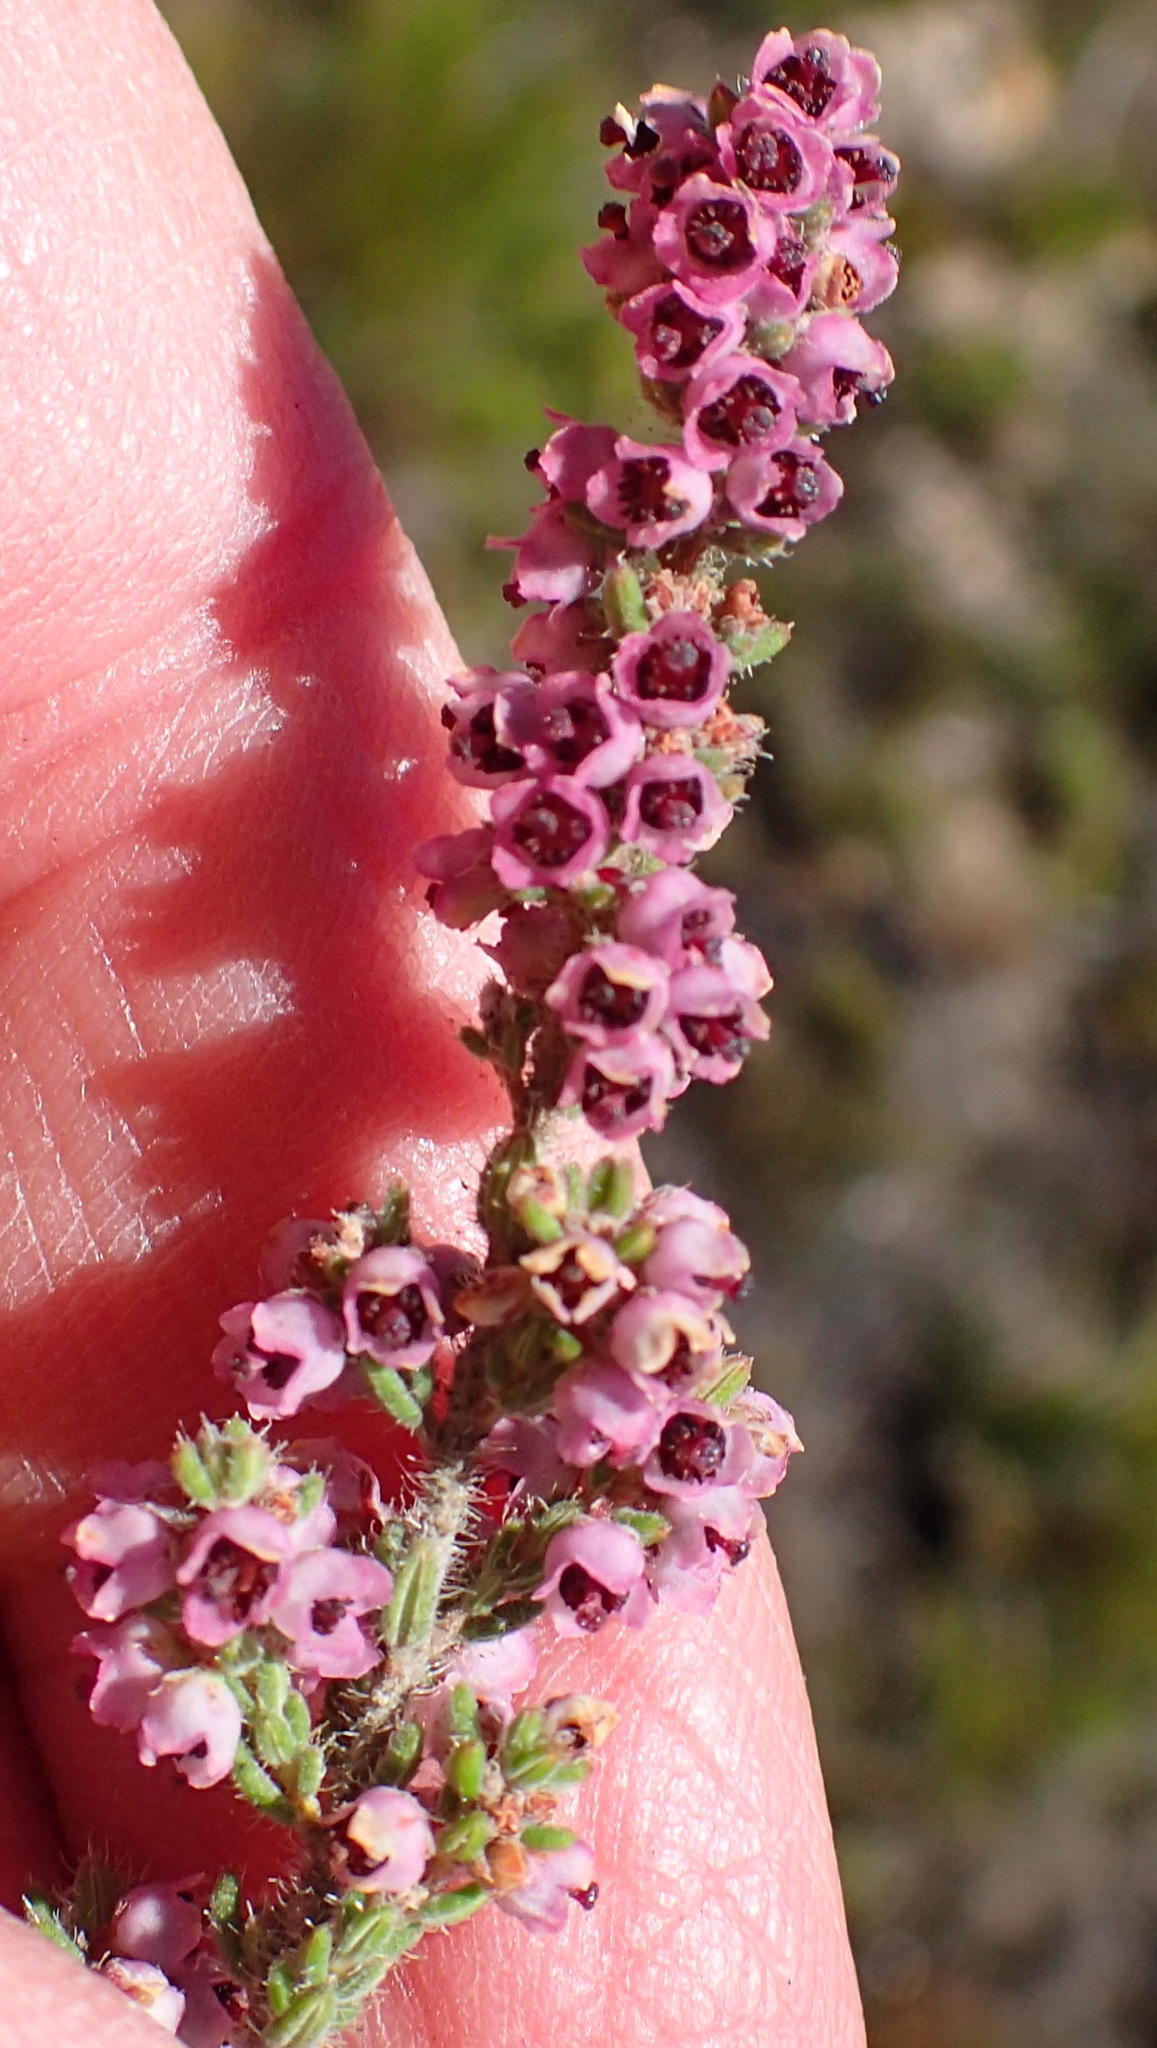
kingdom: Plantae
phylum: Tracheophyta
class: Magnoliopsida
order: Ericales
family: Ericaceae
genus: Erica
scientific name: Erica glandulipila
